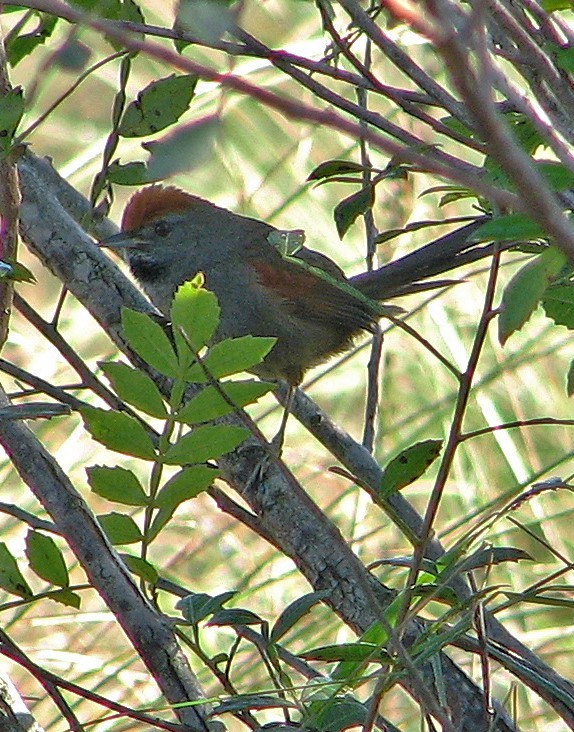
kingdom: Animalia
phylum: Chordata
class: Aves
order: Passeriformes
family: Furnariidae
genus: Synallaxis
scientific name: Synallaxis spixi
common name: Spix's spinetail
